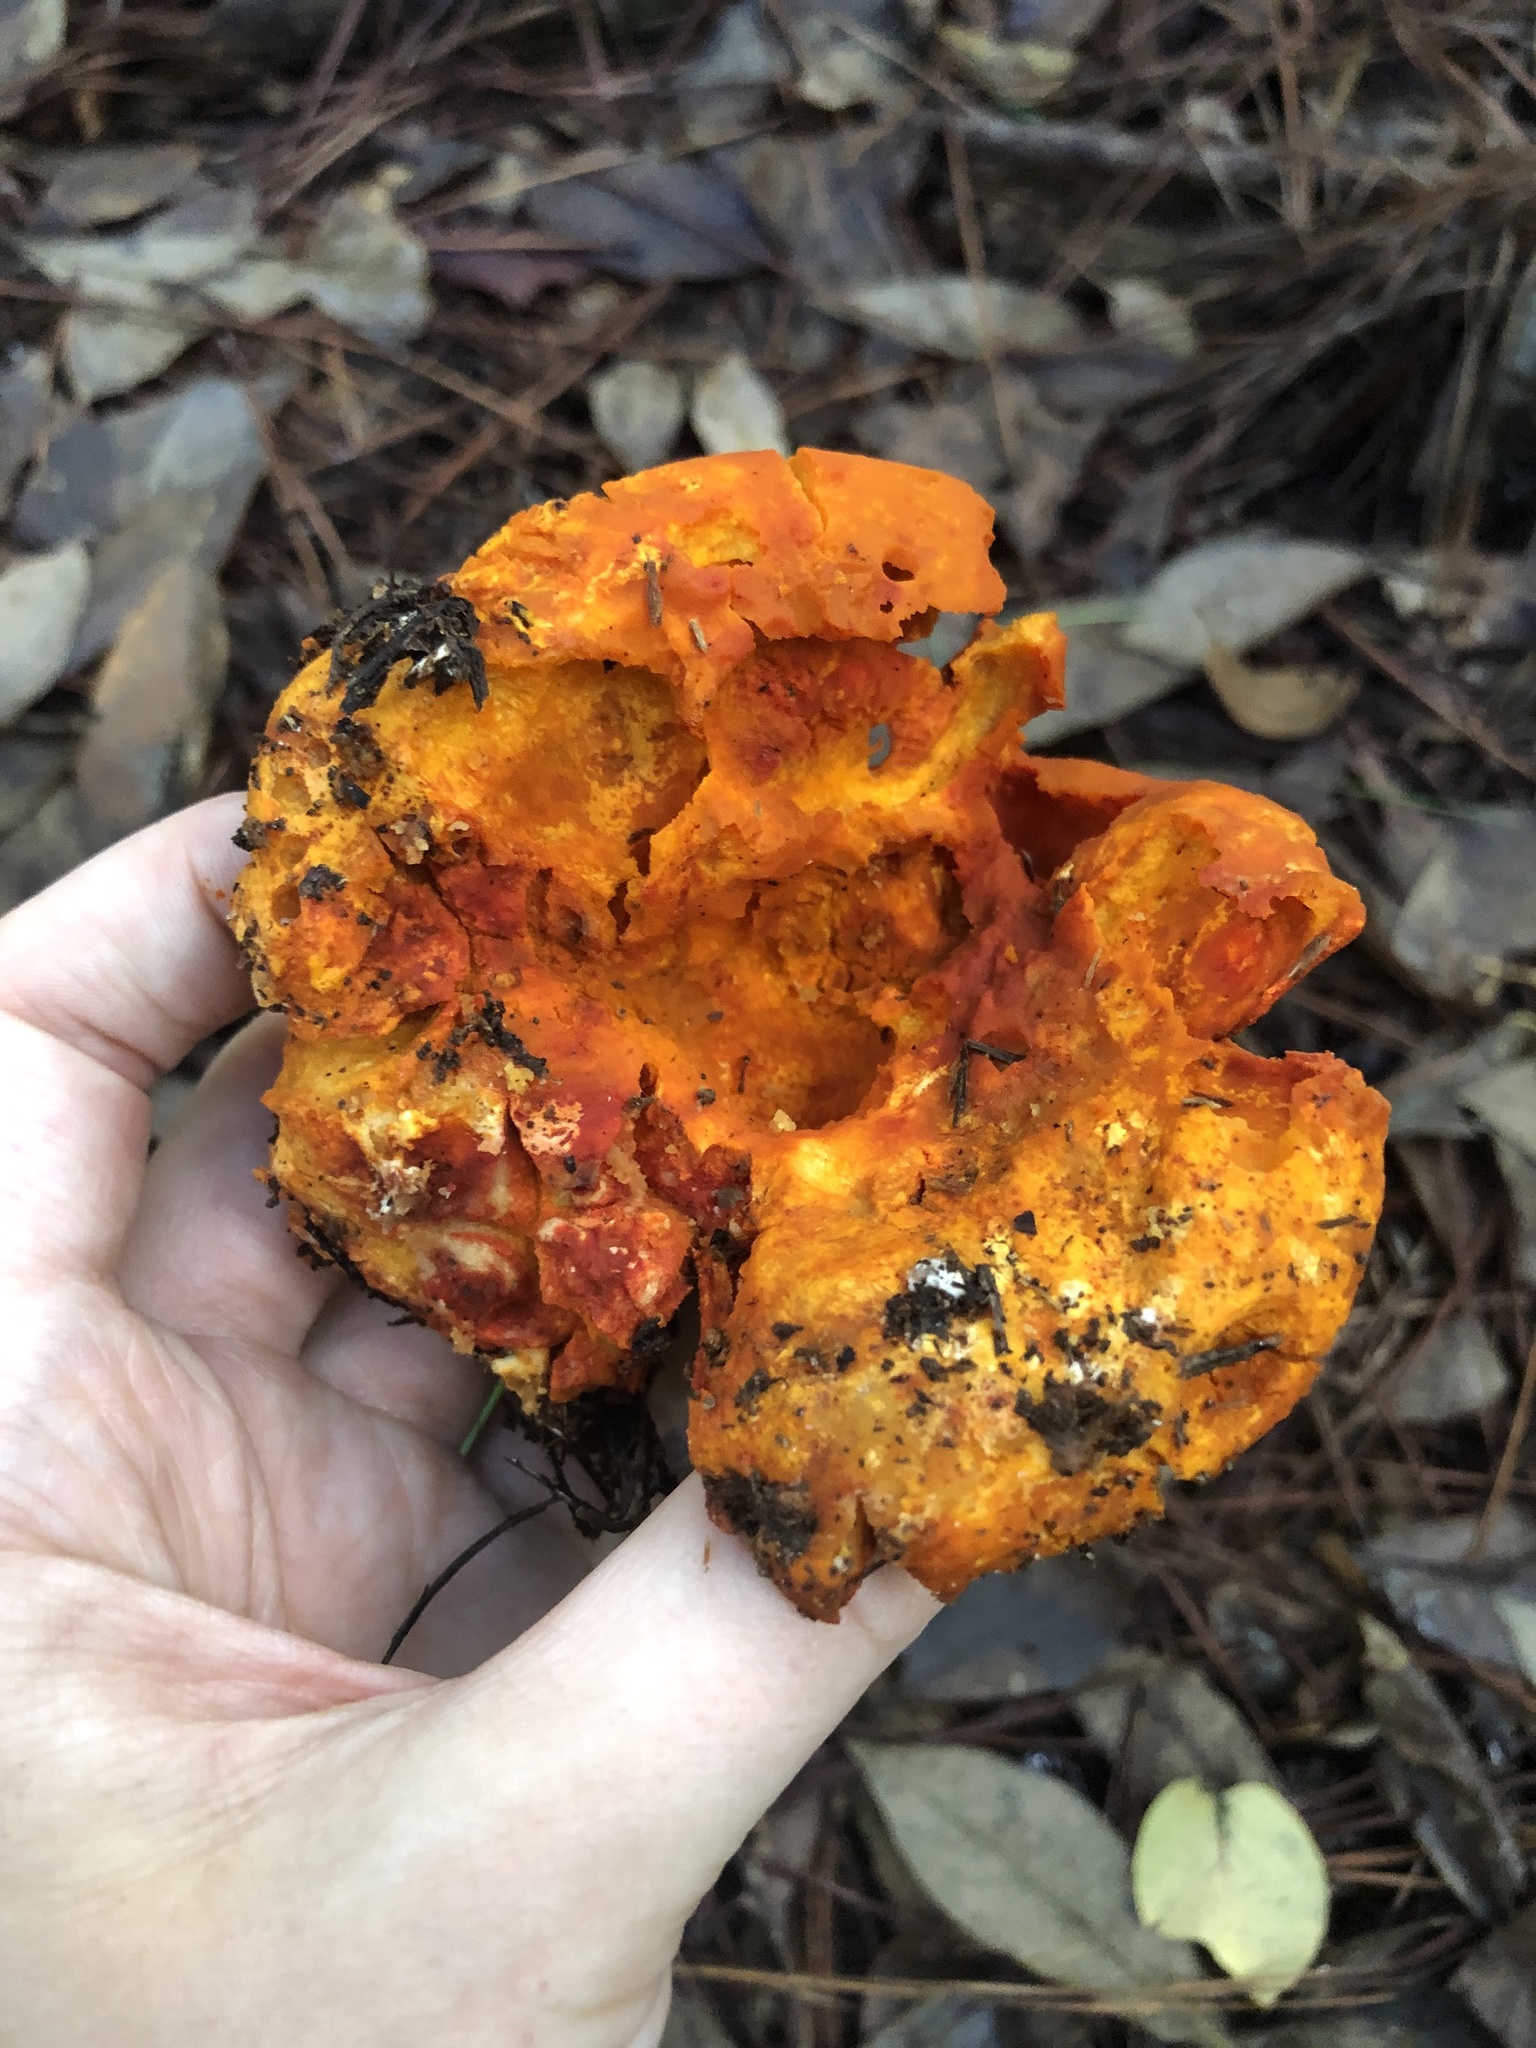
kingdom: Fungi
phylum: Ascomycota
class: Sordariomycetes
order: Hypocreales
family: Hypocreaceae
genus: Hypomyces
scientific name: Hypomyces lactifluorum
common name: Lobster mushroom
